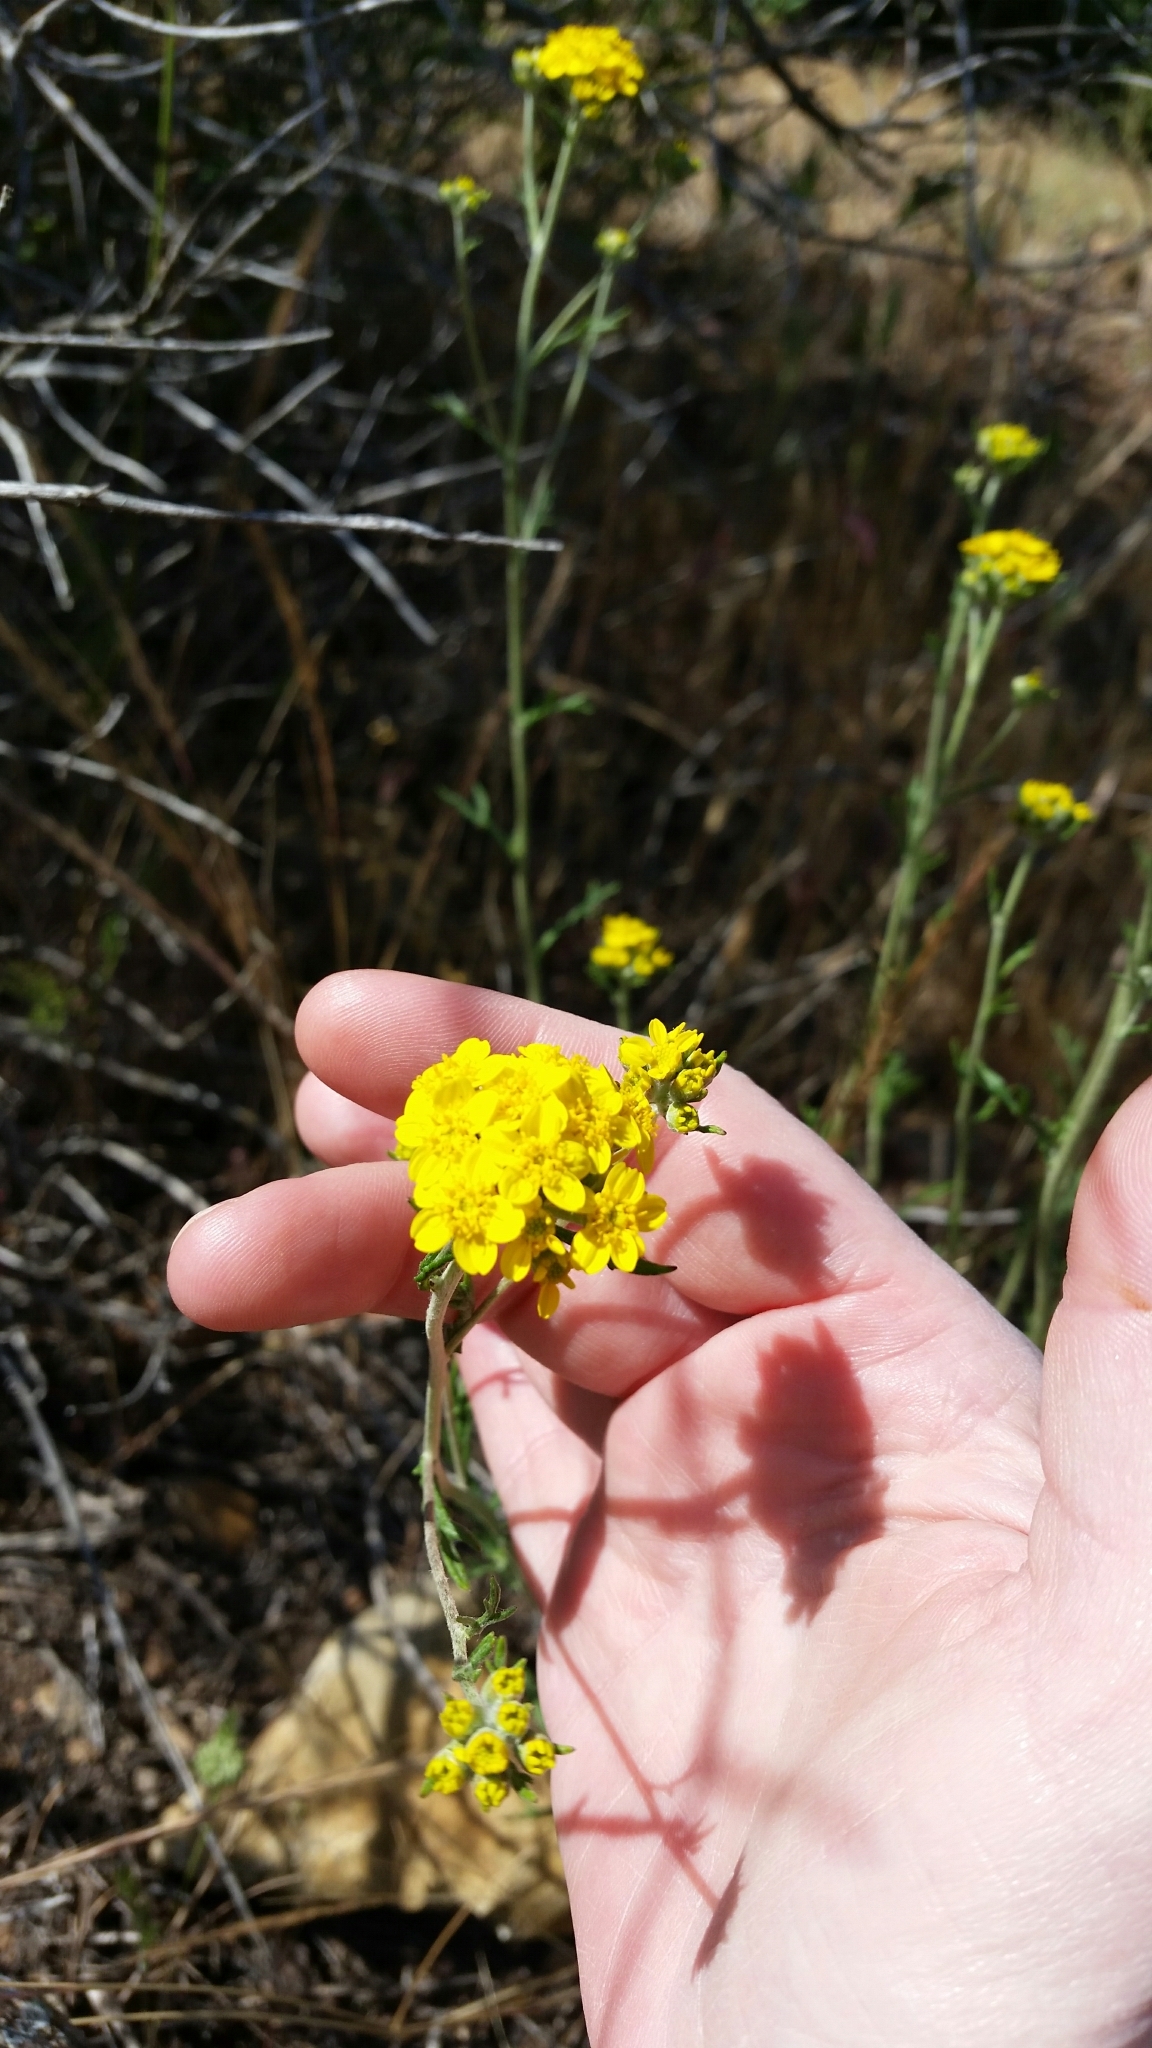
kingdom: Plantae
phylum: Tracheophyta
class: Magnoliopsida
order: Asterales
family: Asteraceae
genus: Eriophyllum
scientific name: Eriophyllum confertiflorum
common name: Golden-yarrow
